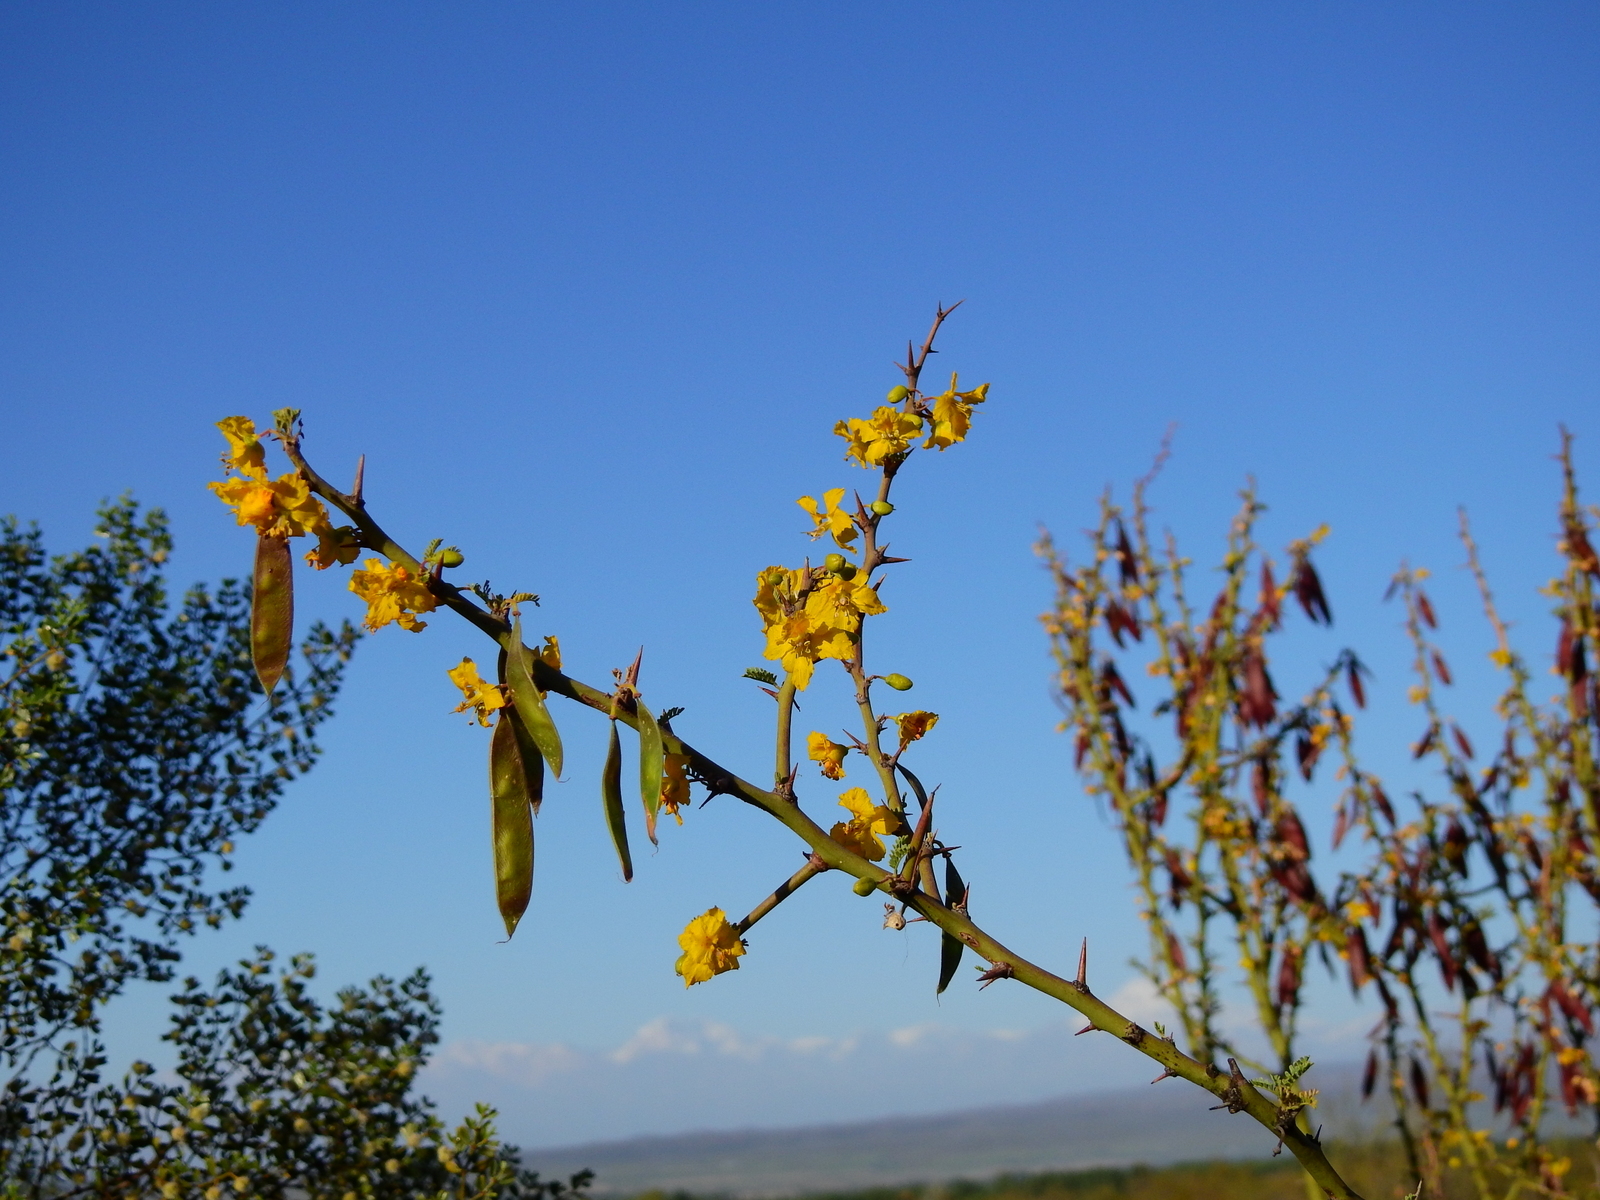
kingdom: Plantae
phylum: Tracheophyta
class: Magnoliopsida
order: Fabales
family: Fabaceae
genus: Parkinsonia
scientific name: Parkinsonia praecox
